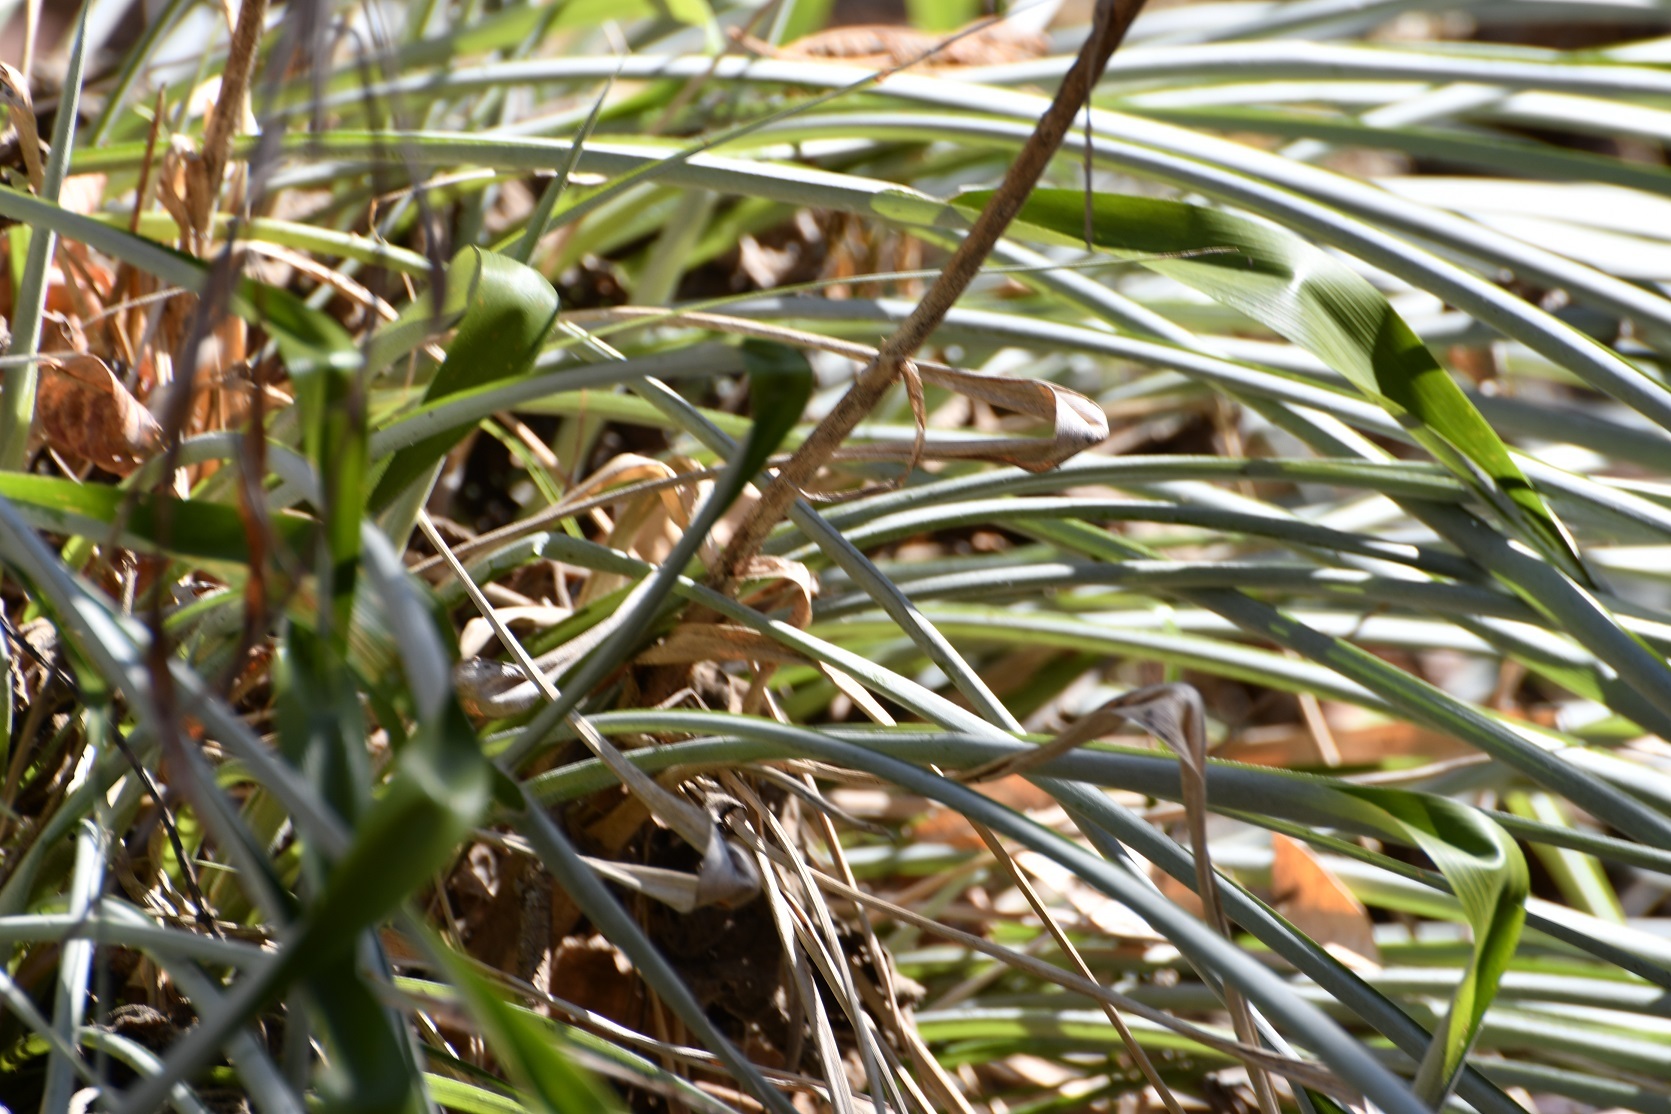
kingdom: Plantae
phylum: Tracheophyta
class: Liliopsida
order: Poales
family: Bromeliaceae
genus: Pitcairnia
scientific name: Pitcairnia breedlovei
